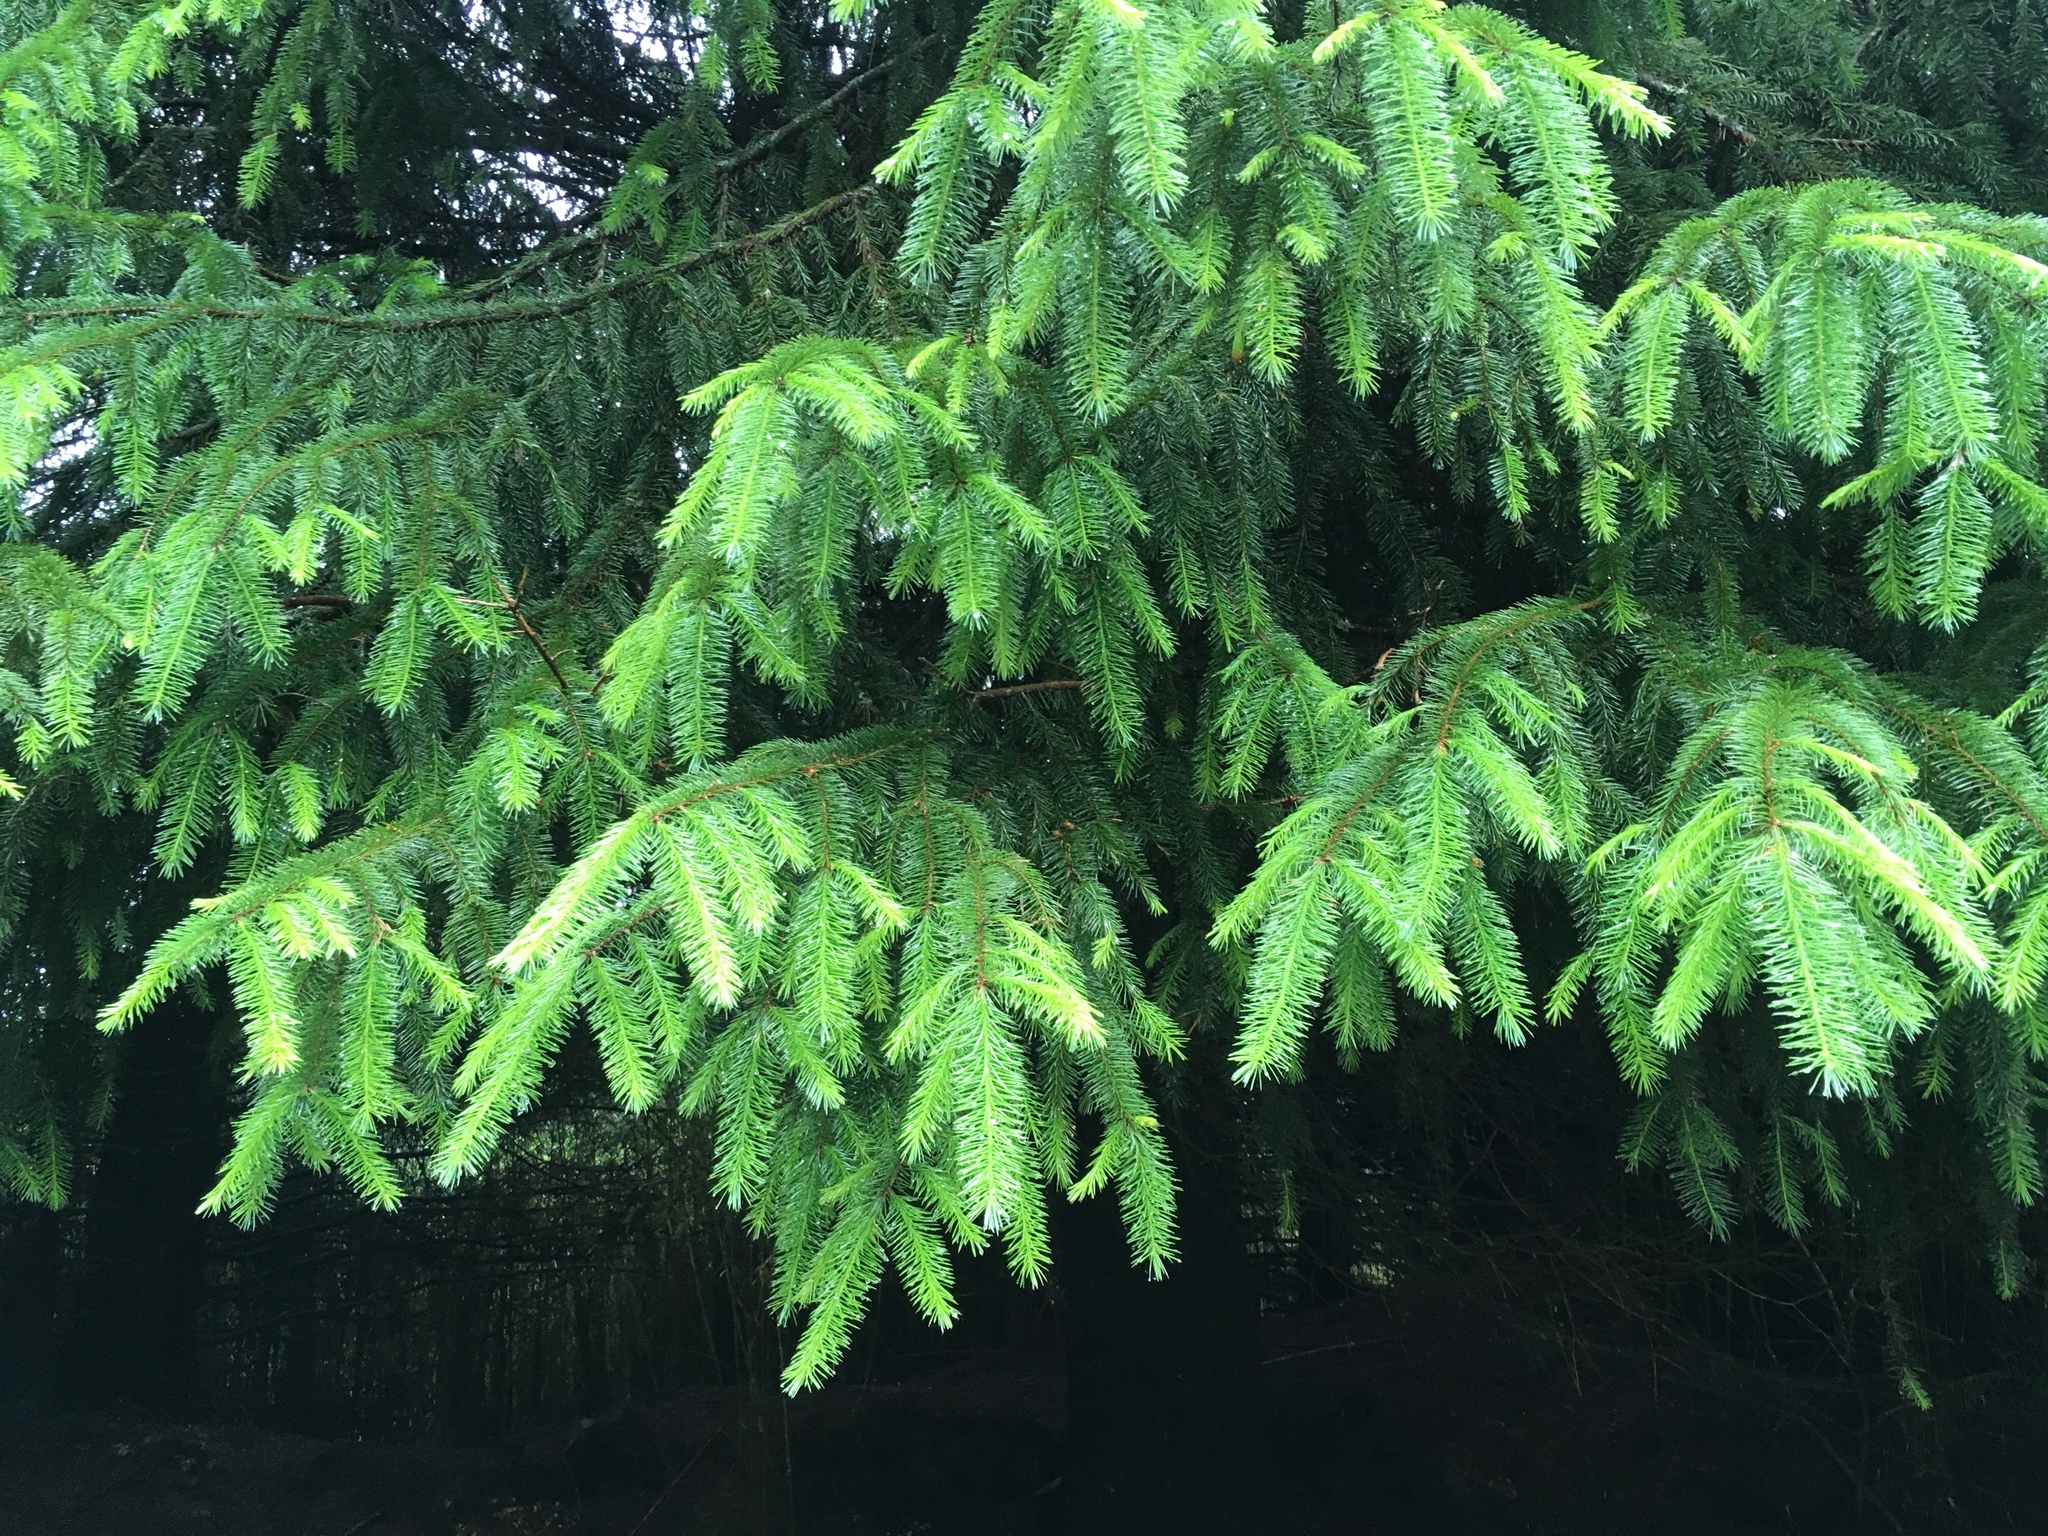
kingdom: Plantae
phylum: Tracheophyta
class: Pinopsida
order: Pinales
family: Pinaceae
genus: Picea
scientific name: Picea morrisonicola
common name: Mount morrison spruce
